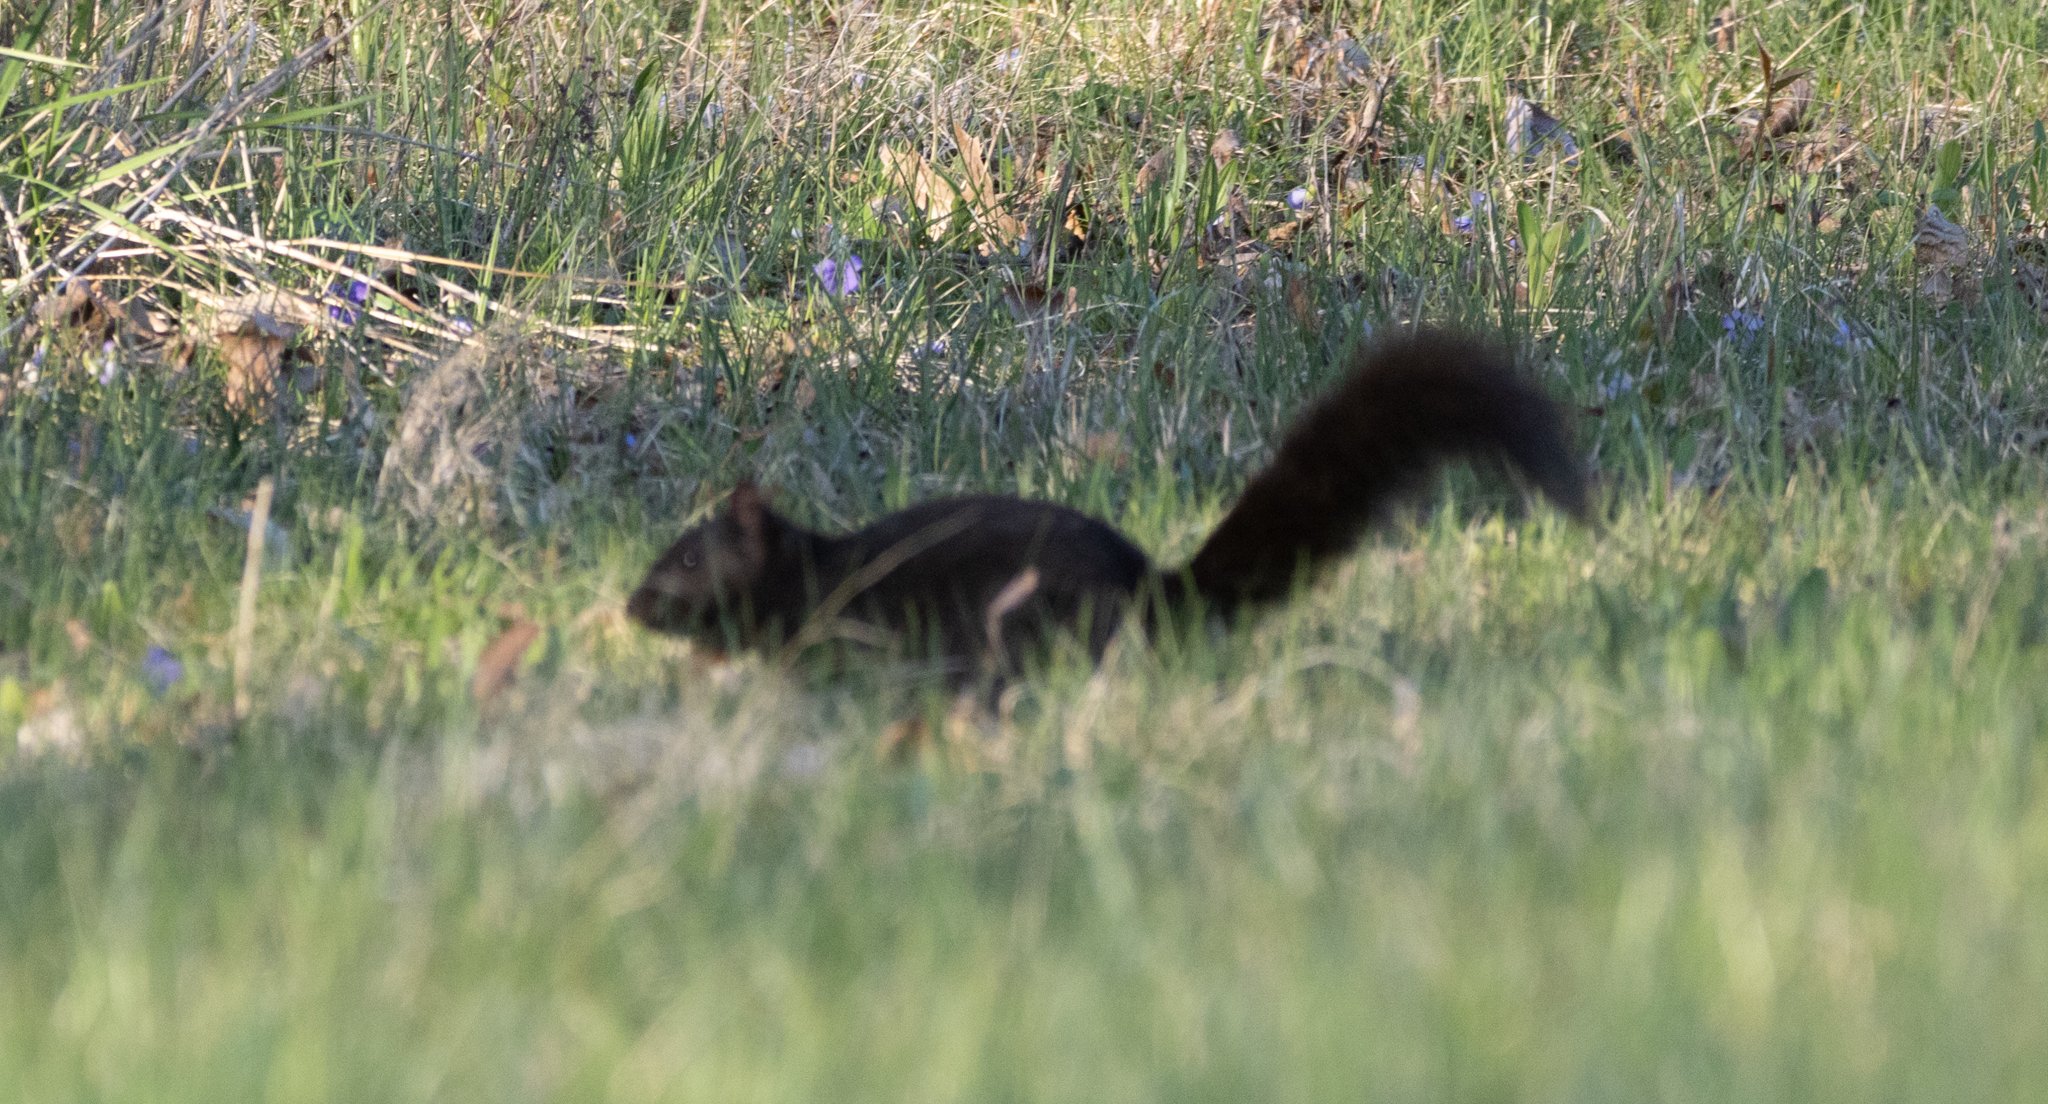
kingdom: Animalia
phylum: Chordata
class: Mammalia
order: Rodentia
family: Sciuridae
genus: Sciurus
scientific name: Sciurus carolinensis
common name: Eastern gray squirrel
